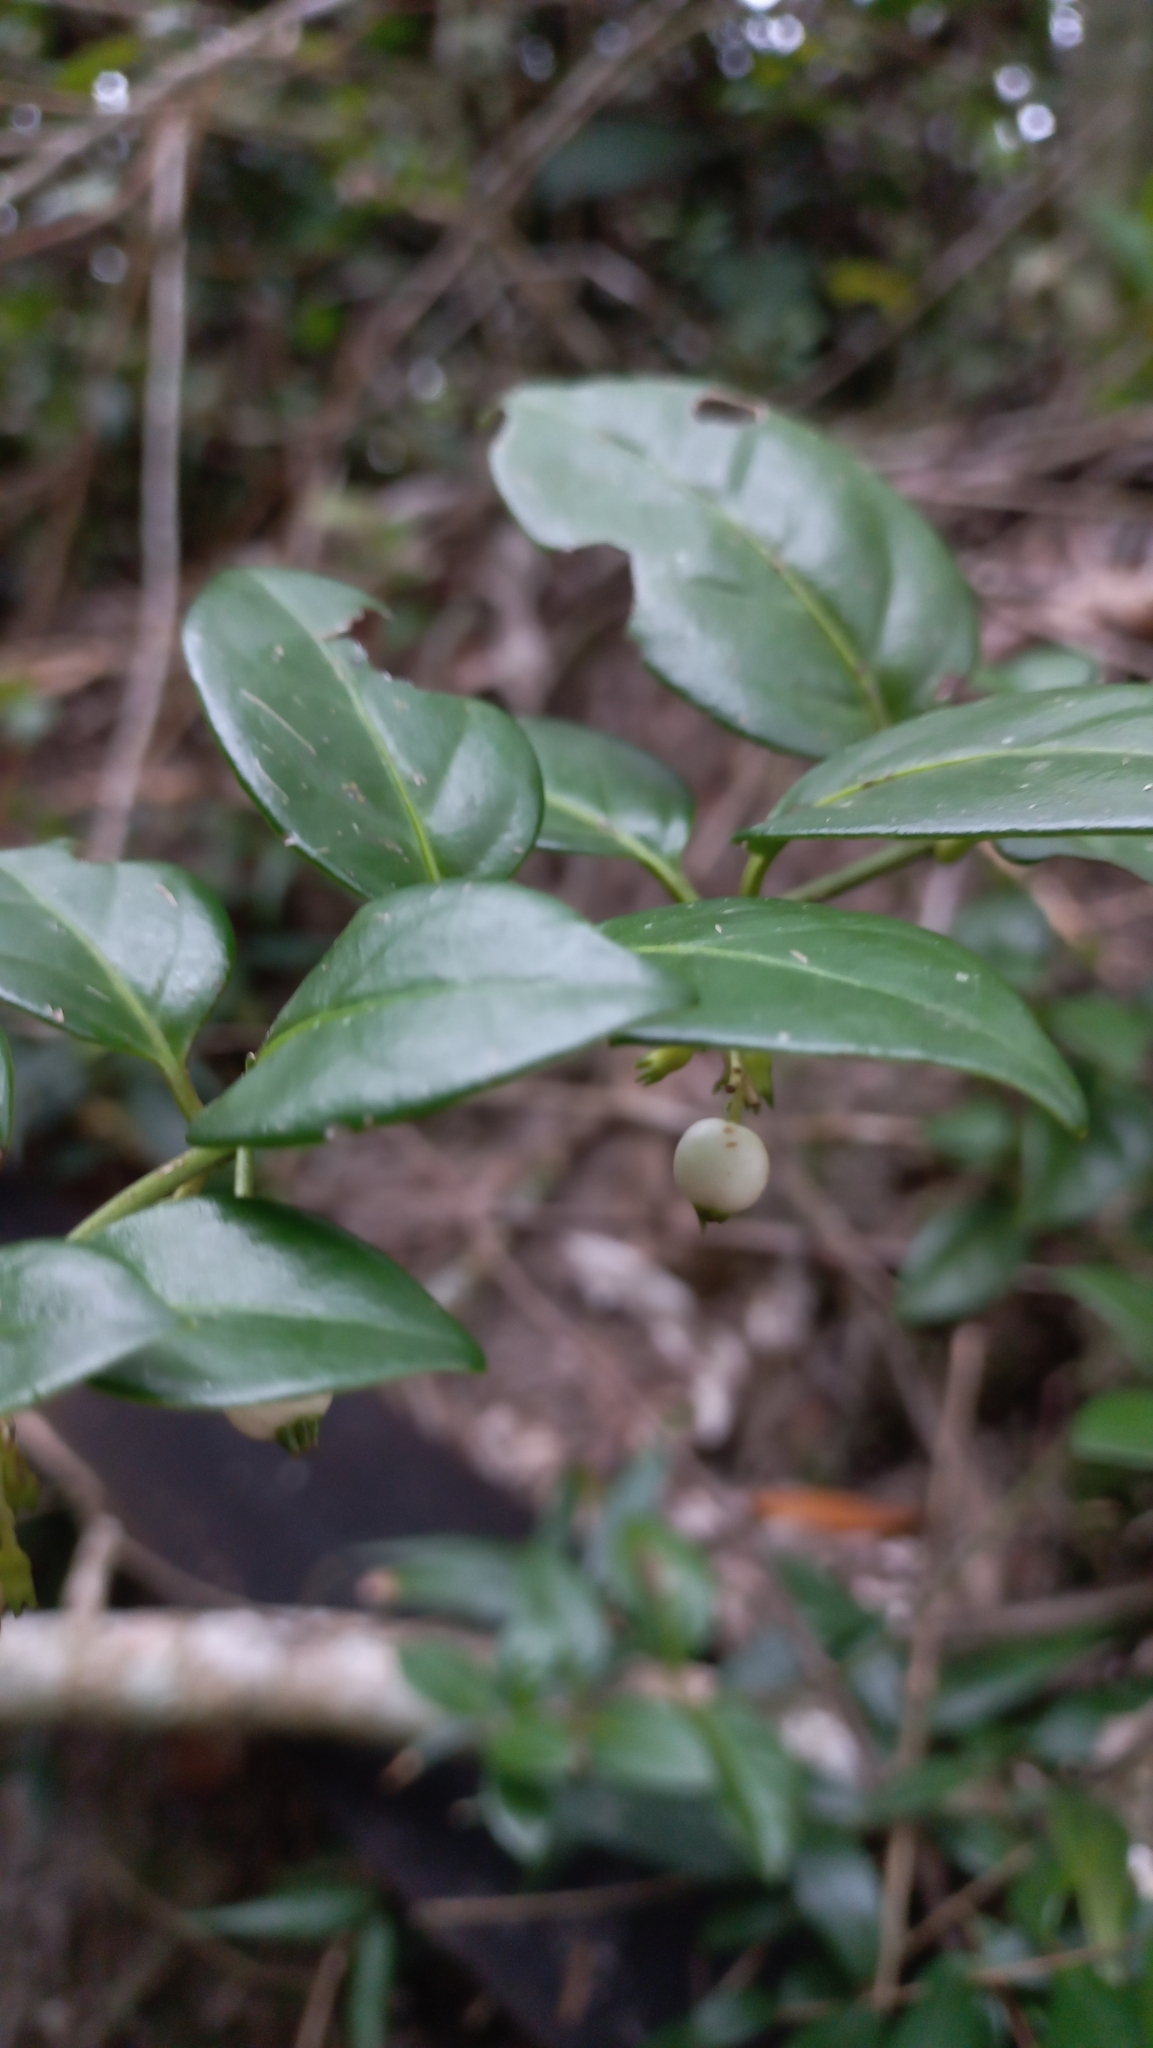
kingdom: Plantae
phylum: Tracheophyta
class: Magnoliopsida
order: Gentianales
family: Rubiaceae
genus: Chiococca
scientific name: Chiococca alba
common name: Snowberry
